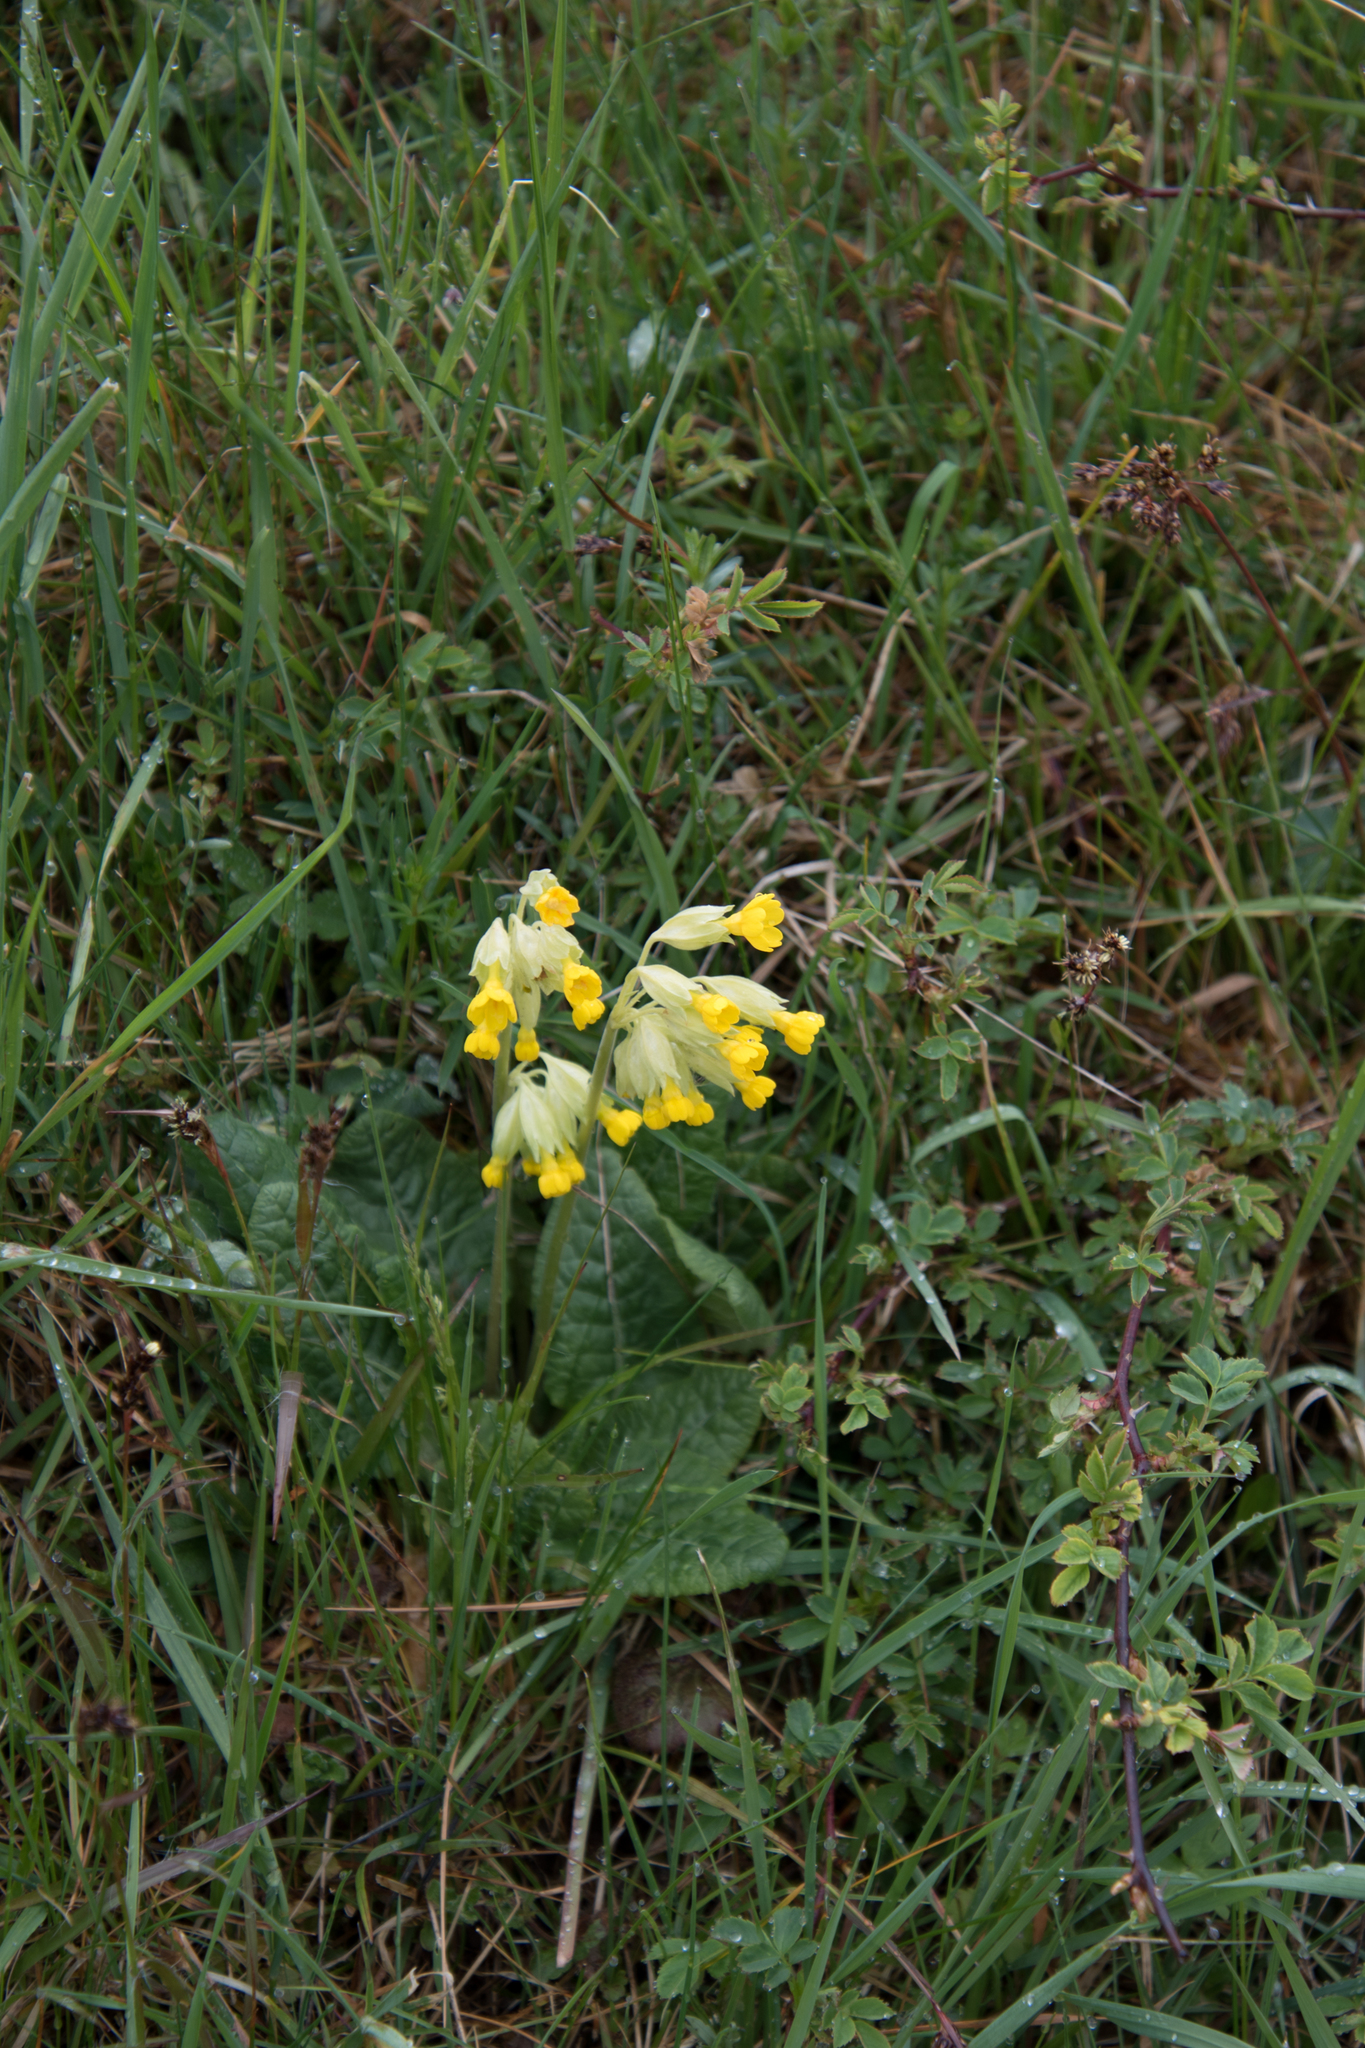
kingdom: Plantae
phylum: Tracheophyta
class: Magnoliopsida
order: Ericales
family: Primulaceae
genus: Primula
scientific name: Primula veris
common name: Cowslip
